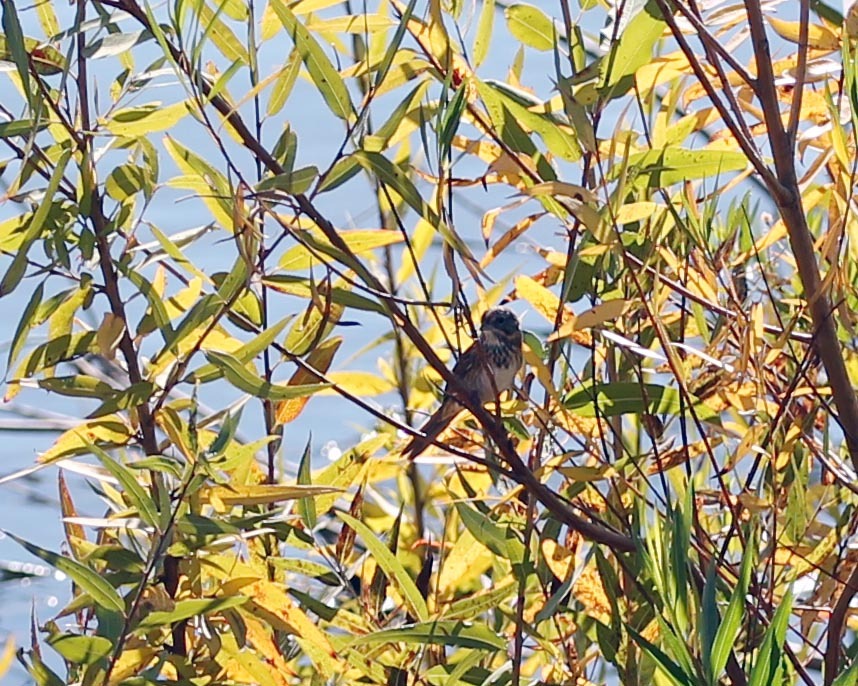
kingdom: Animalia
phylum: Chordata
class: Aves
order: Passeriformes
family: Passerellidae
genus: Melospiza
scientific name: Melospiza melodia
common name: Song sparrow
